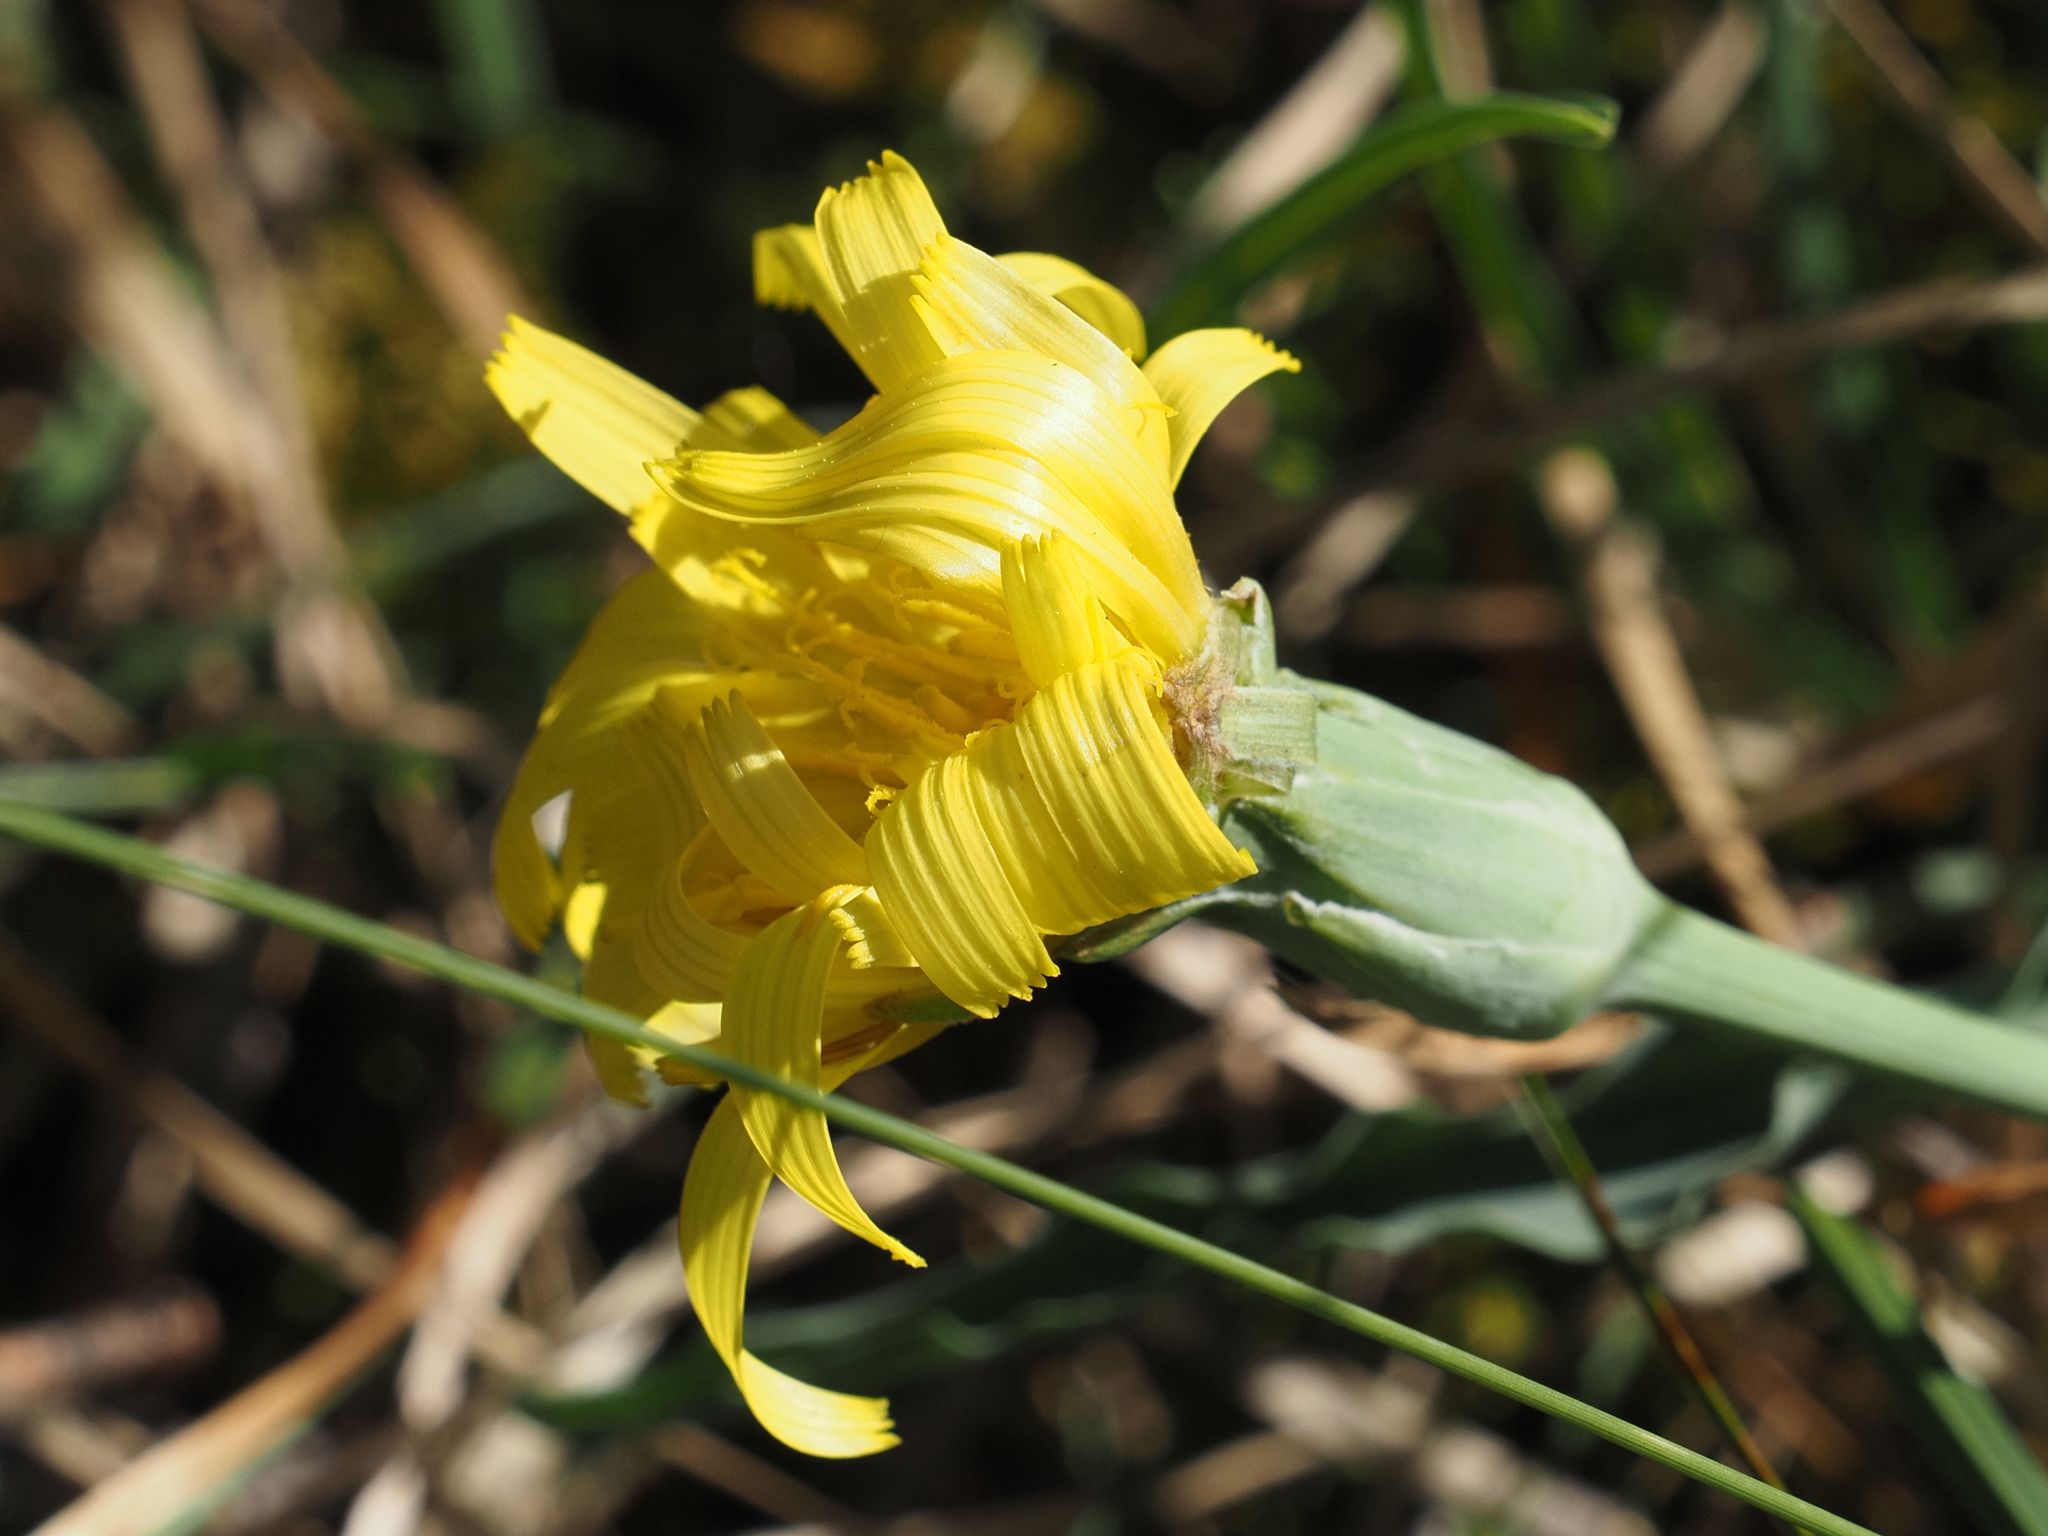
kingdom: Plantae
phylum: Tracheophyta
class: Magnoliopsida
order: Asterales
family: Asteraceae
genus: Takhtajaniantha
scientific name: Takhtajaniantha austriaca
